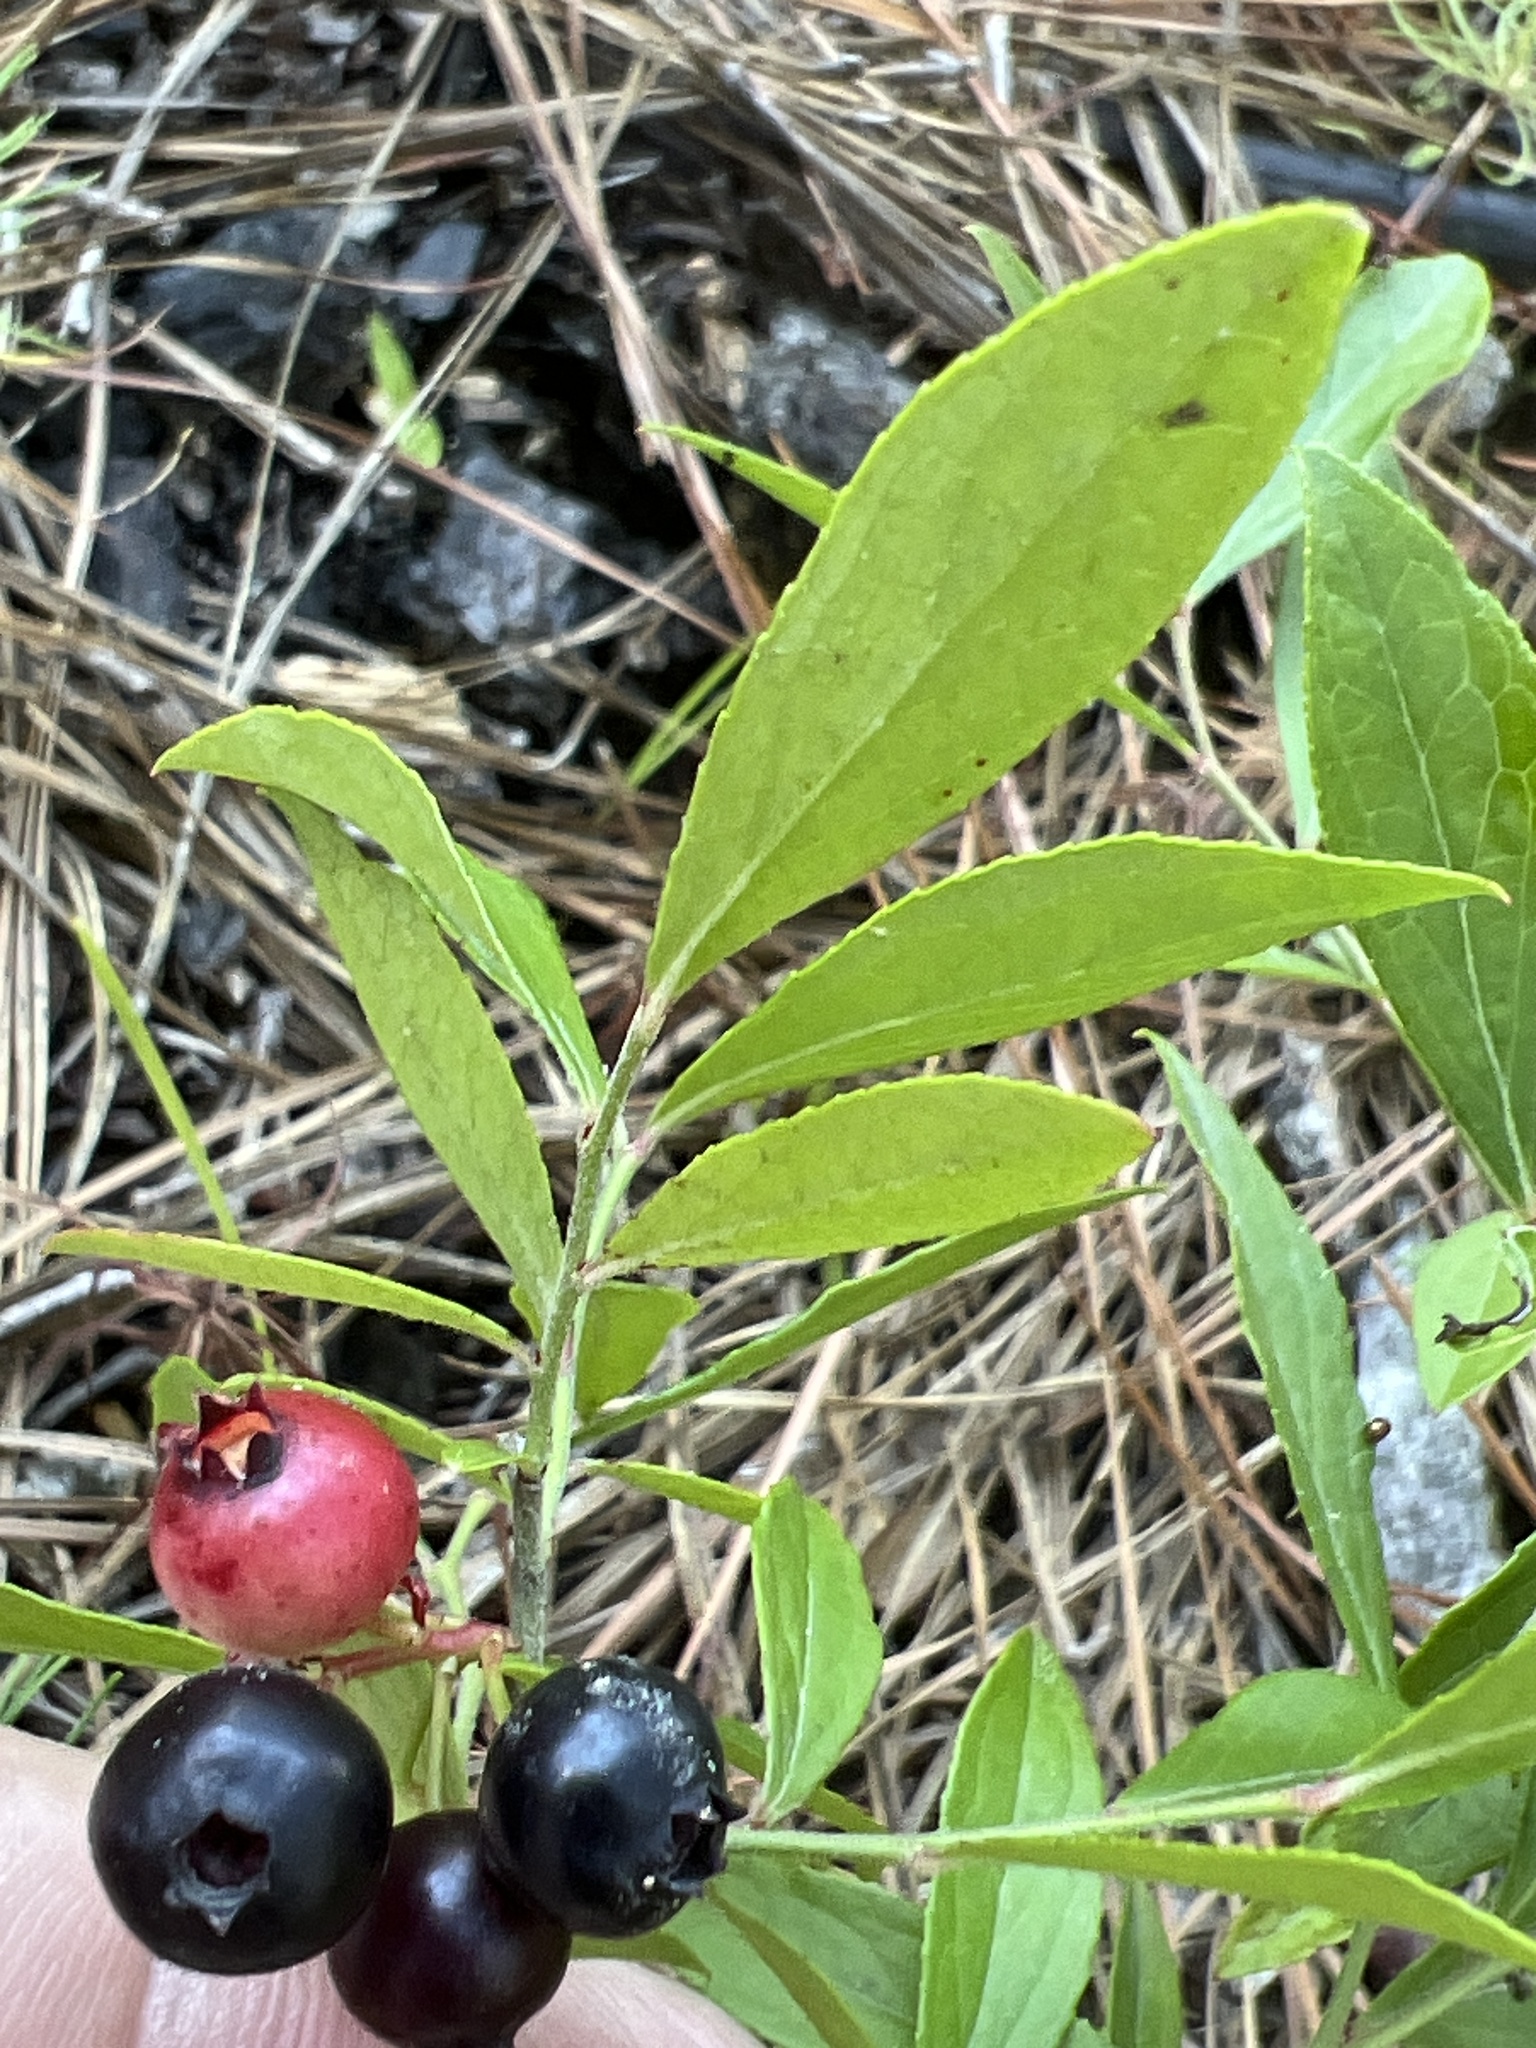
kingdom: Plantae
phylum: Tracheophyta
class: Magnoliopsida
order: Ericales
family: Ericaceae
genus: Vaccinium
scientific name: Vaccinium tenellum
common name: Southern blueberry
